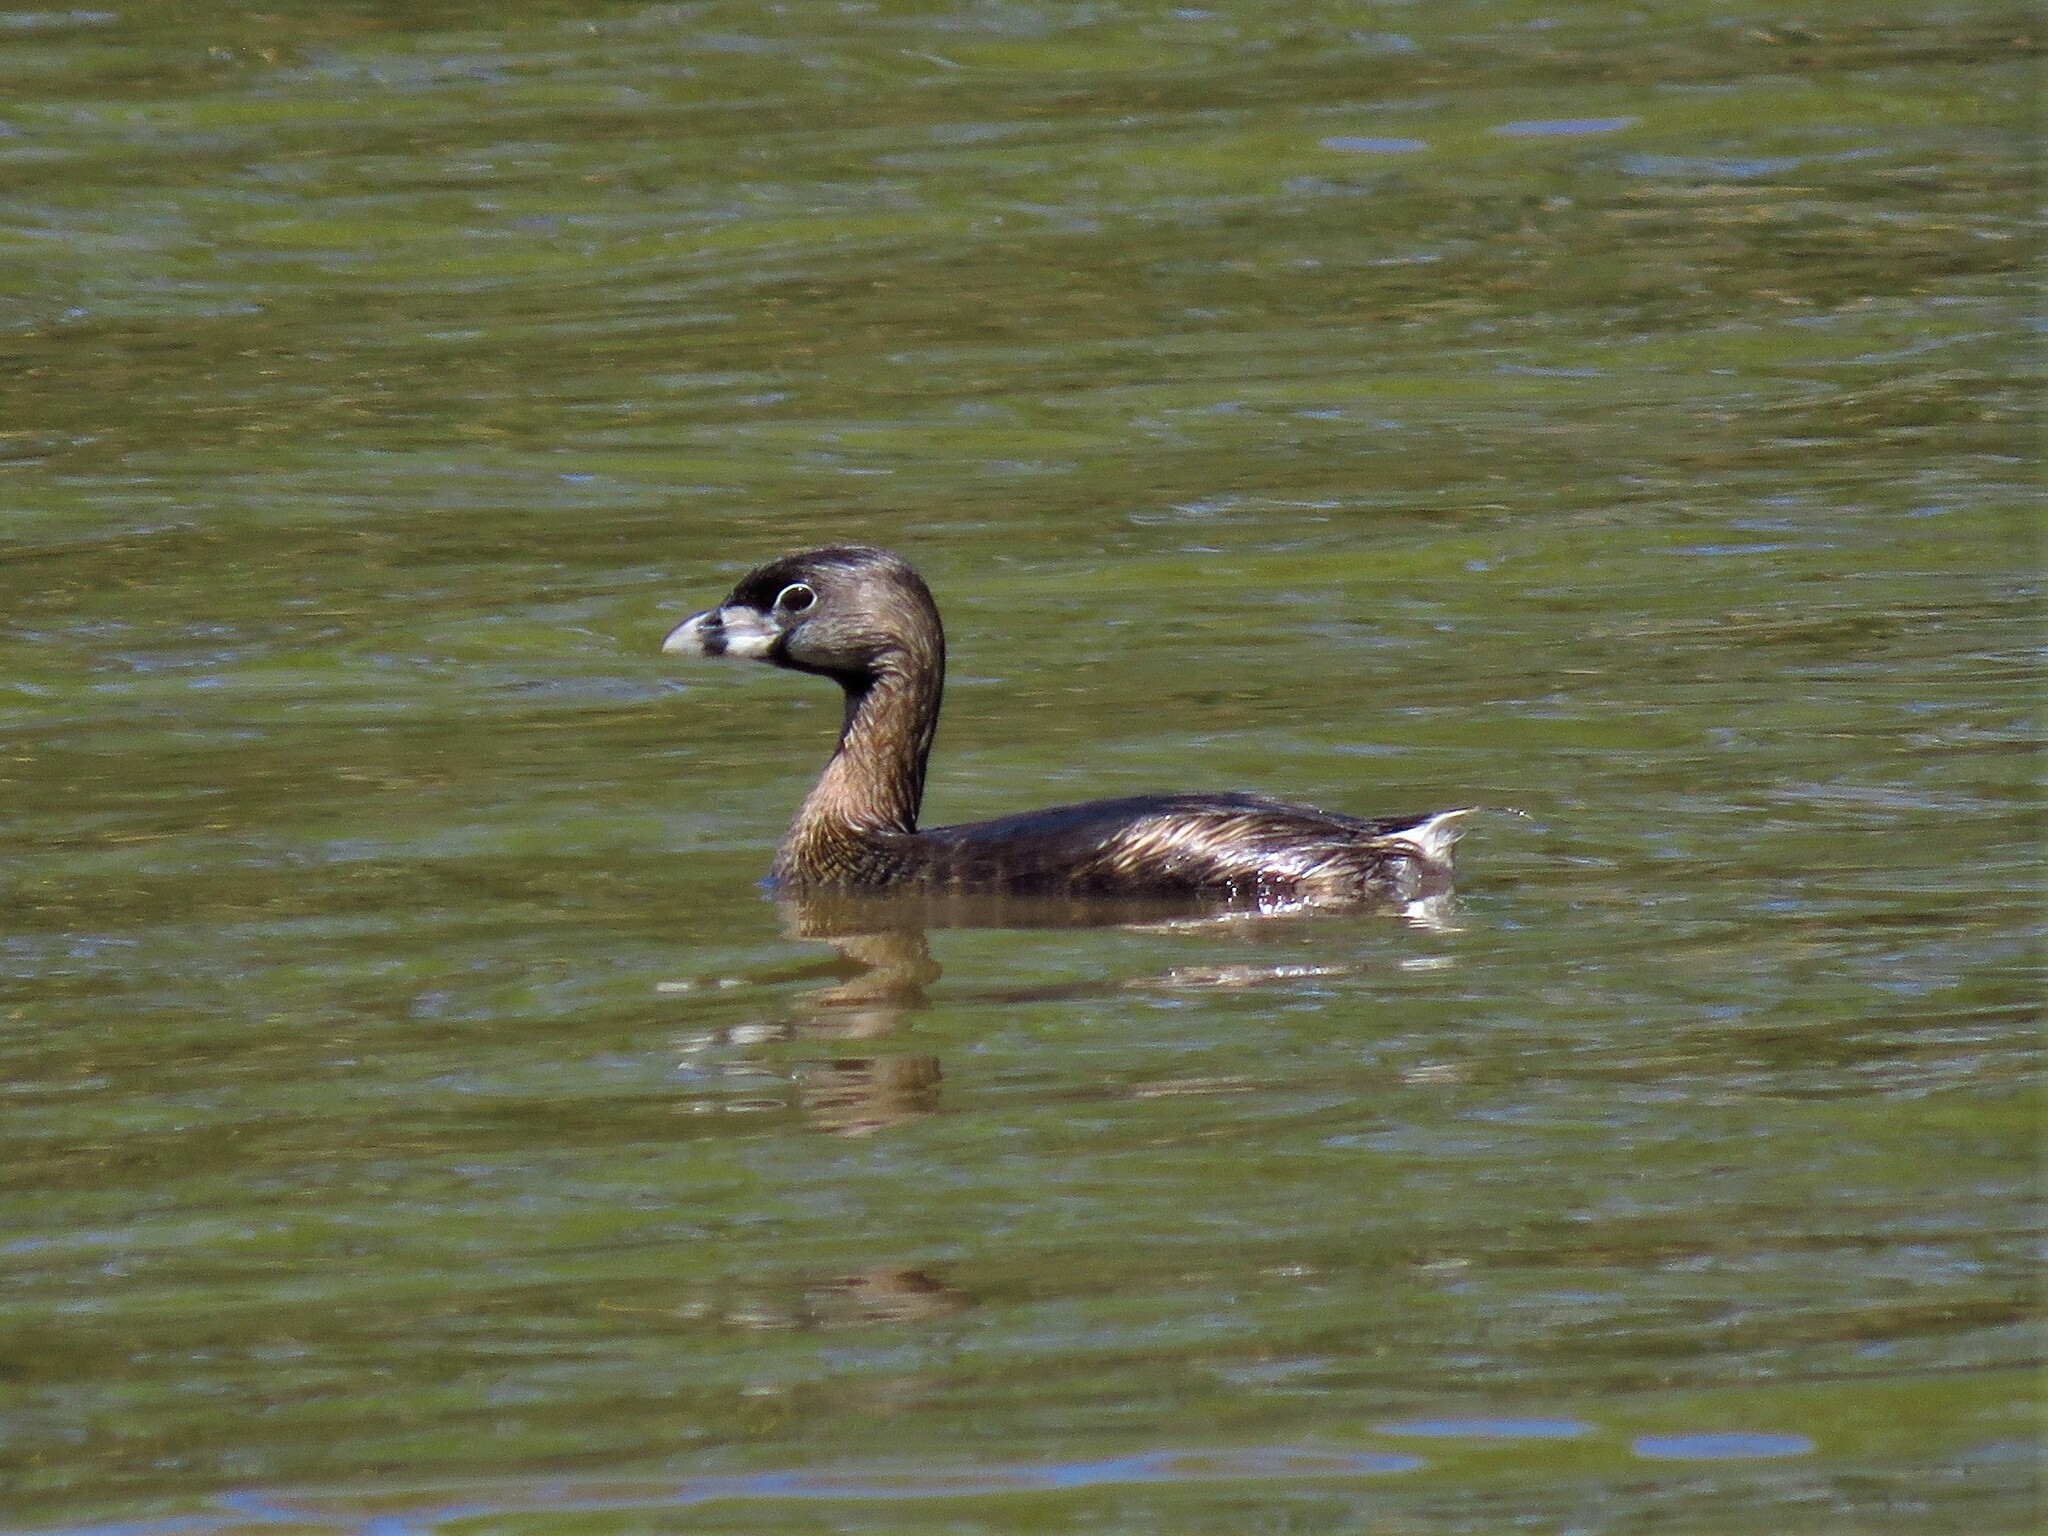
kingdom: Animalia
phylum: Chordata
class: Aves
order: Podicipediformes
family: Podicipedidae
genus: Podilymbus
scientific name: Podilymbus podiceps
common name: Pied-billed grebe
